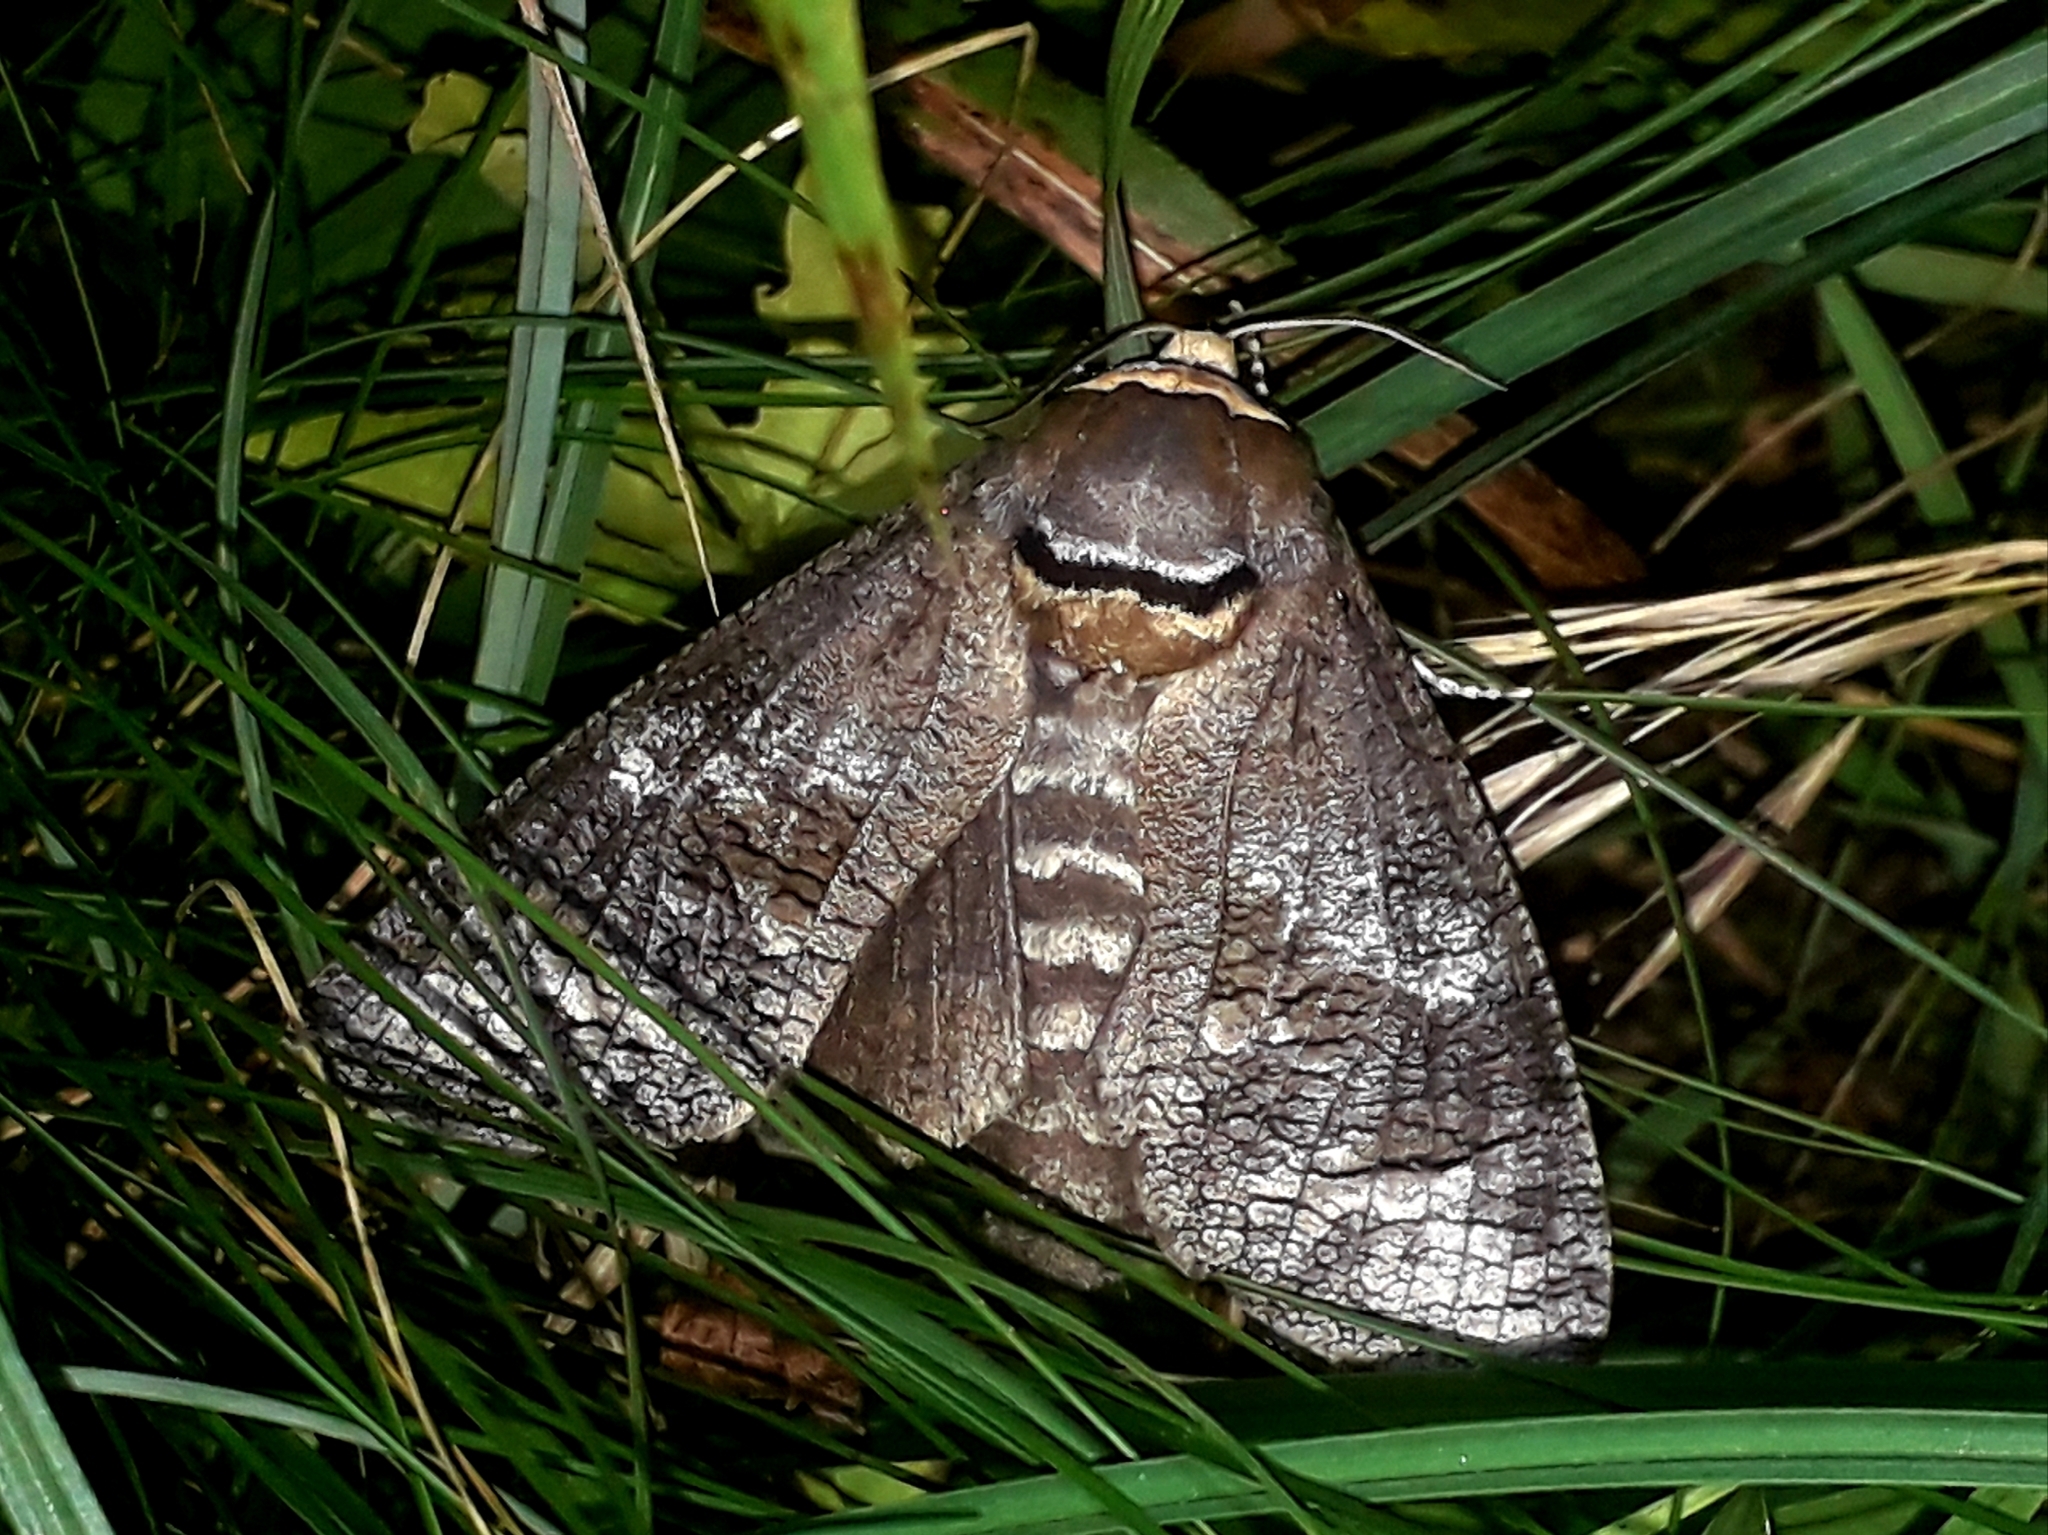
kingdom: Animalia
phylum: Arthropoda
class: Insecta
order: Lepidoptera
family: Cossidae
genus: Cossus
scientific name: Cossus cossus
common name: Goat moth
